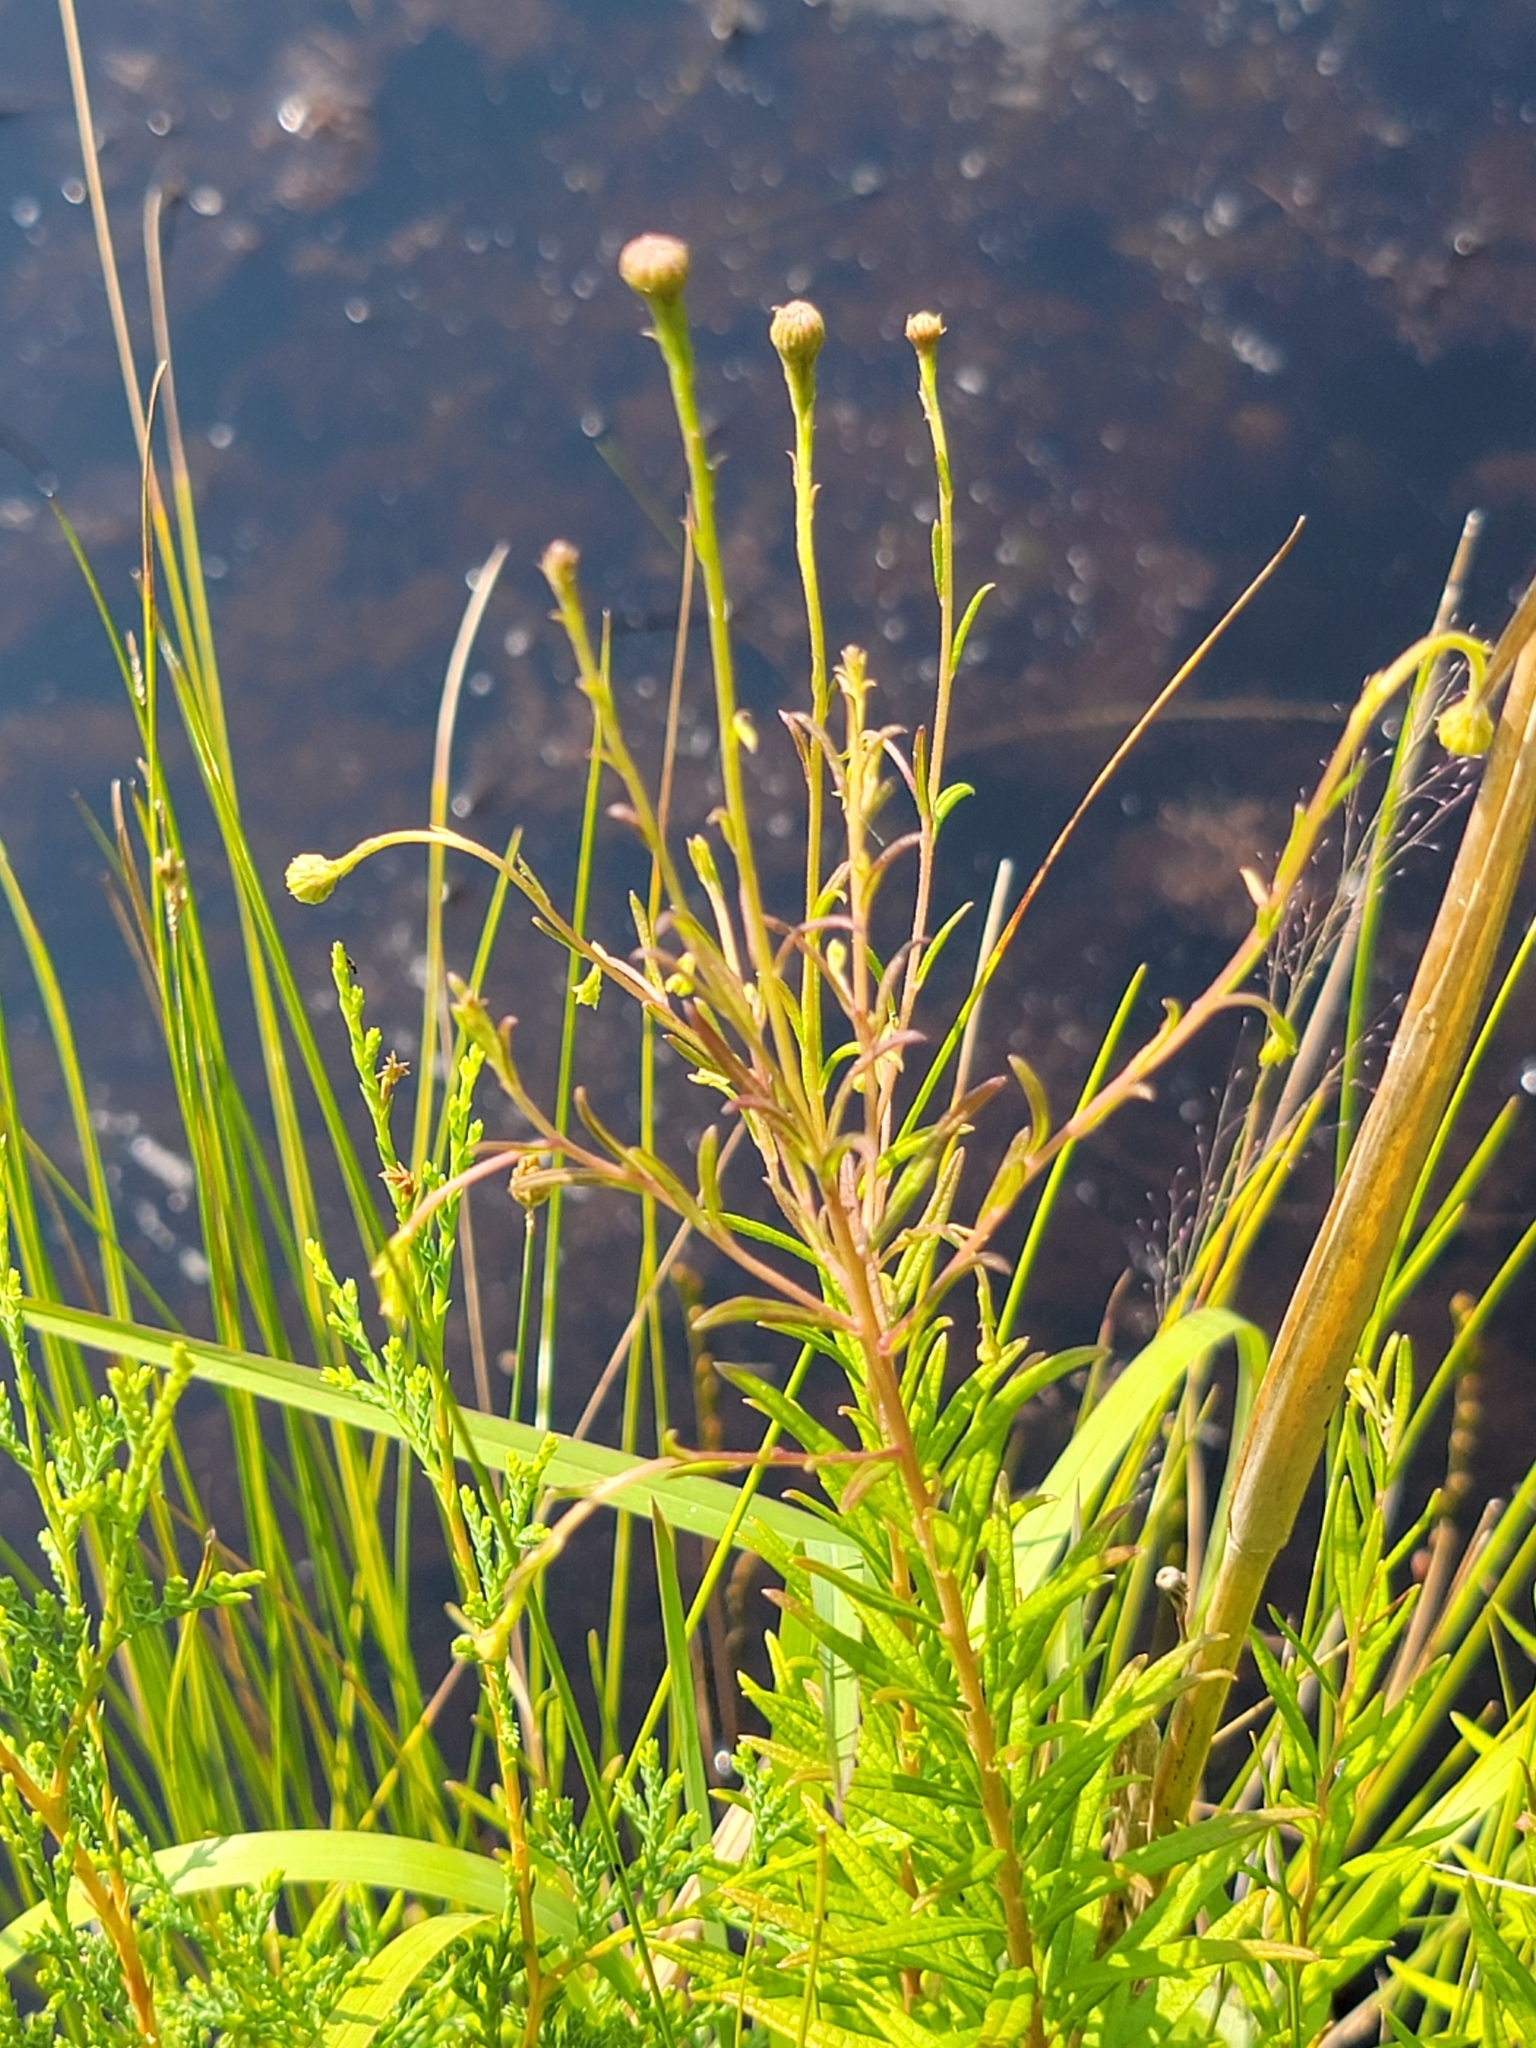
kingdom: Plantae
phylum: Tracheophyta
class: Magnoliopsida
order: Asterales
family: Asteraceae
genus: Oclemena
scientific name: Oclemena nemoralis
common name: Bog aster
